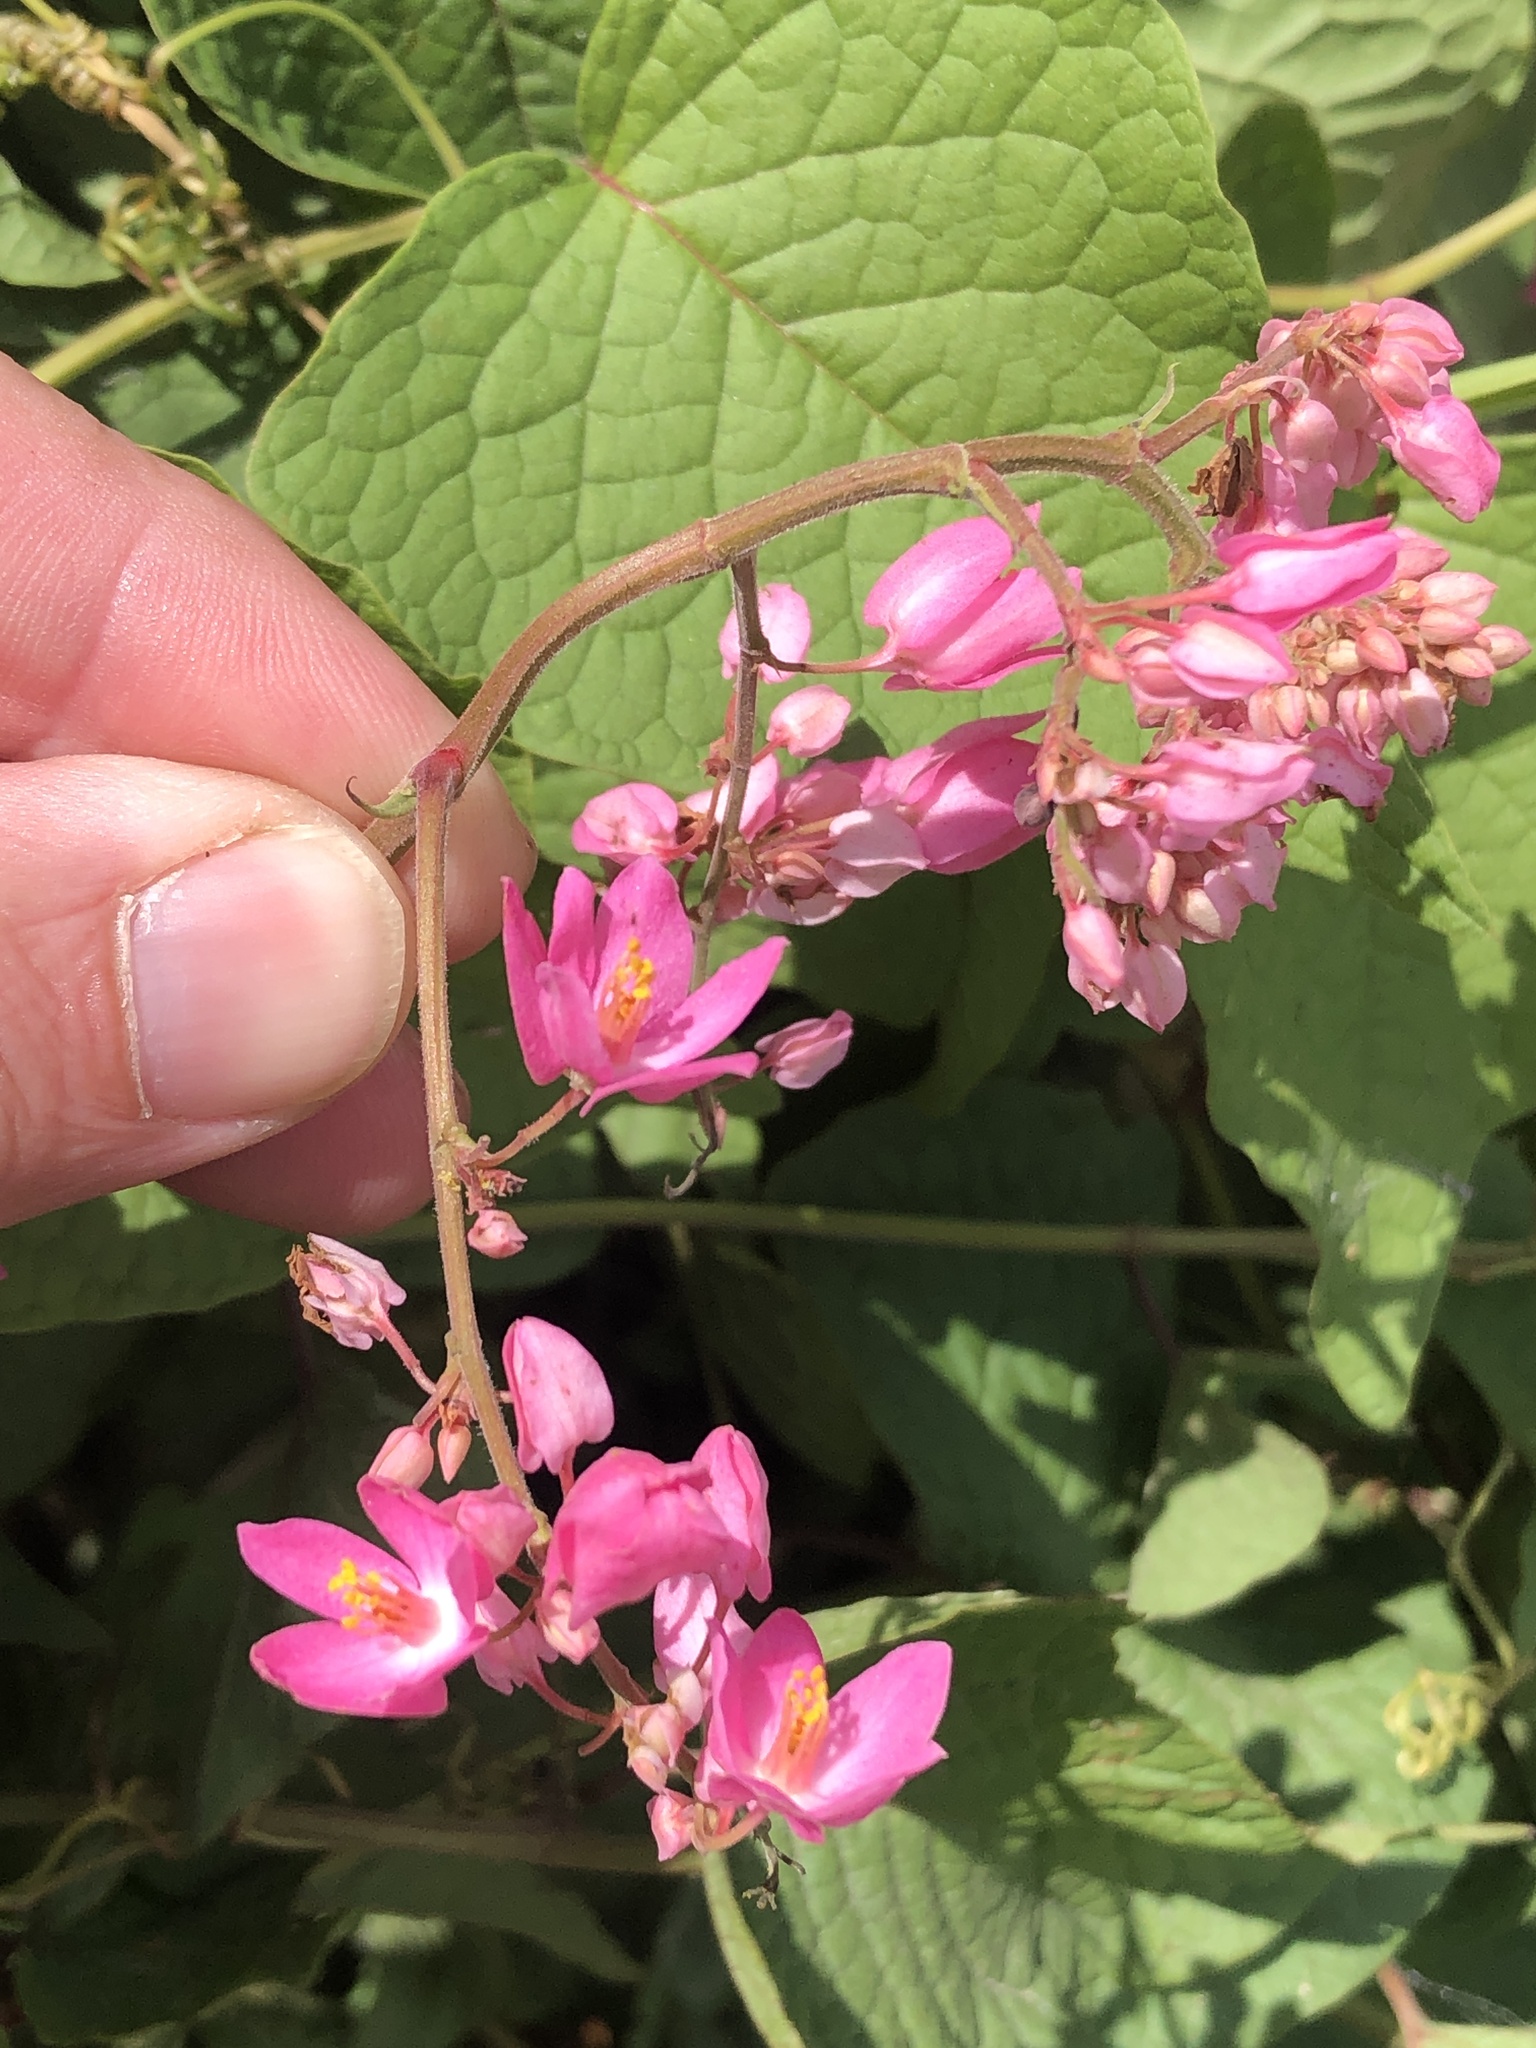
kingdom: Plantae
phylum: Tracheophyta
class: Magnoliopsida
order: Caryophyllales
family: Polygonaceae
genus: Antigonon
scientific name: Antigonon leptopus
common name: Coral vine
